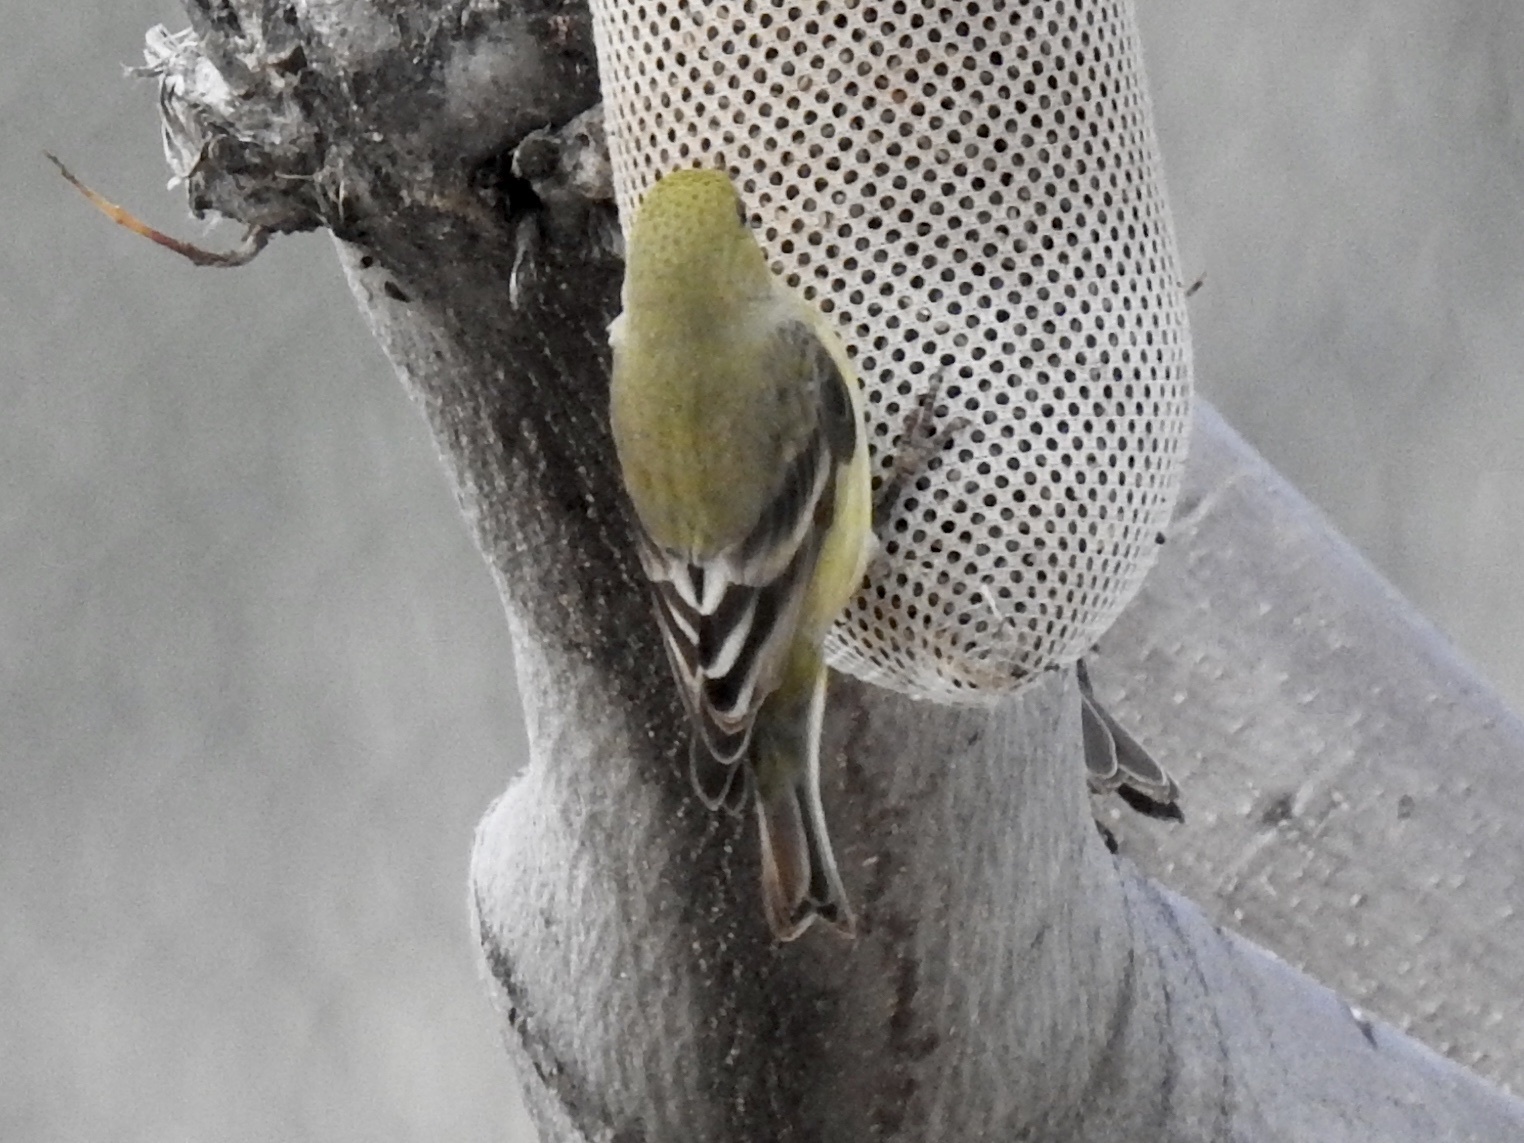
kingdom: Animalia
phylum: Chordata
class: Aves
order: Passeriformes
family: Fringillidae
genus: Spinus
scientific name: Spinus psaltria
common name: Lesser goldfinch
